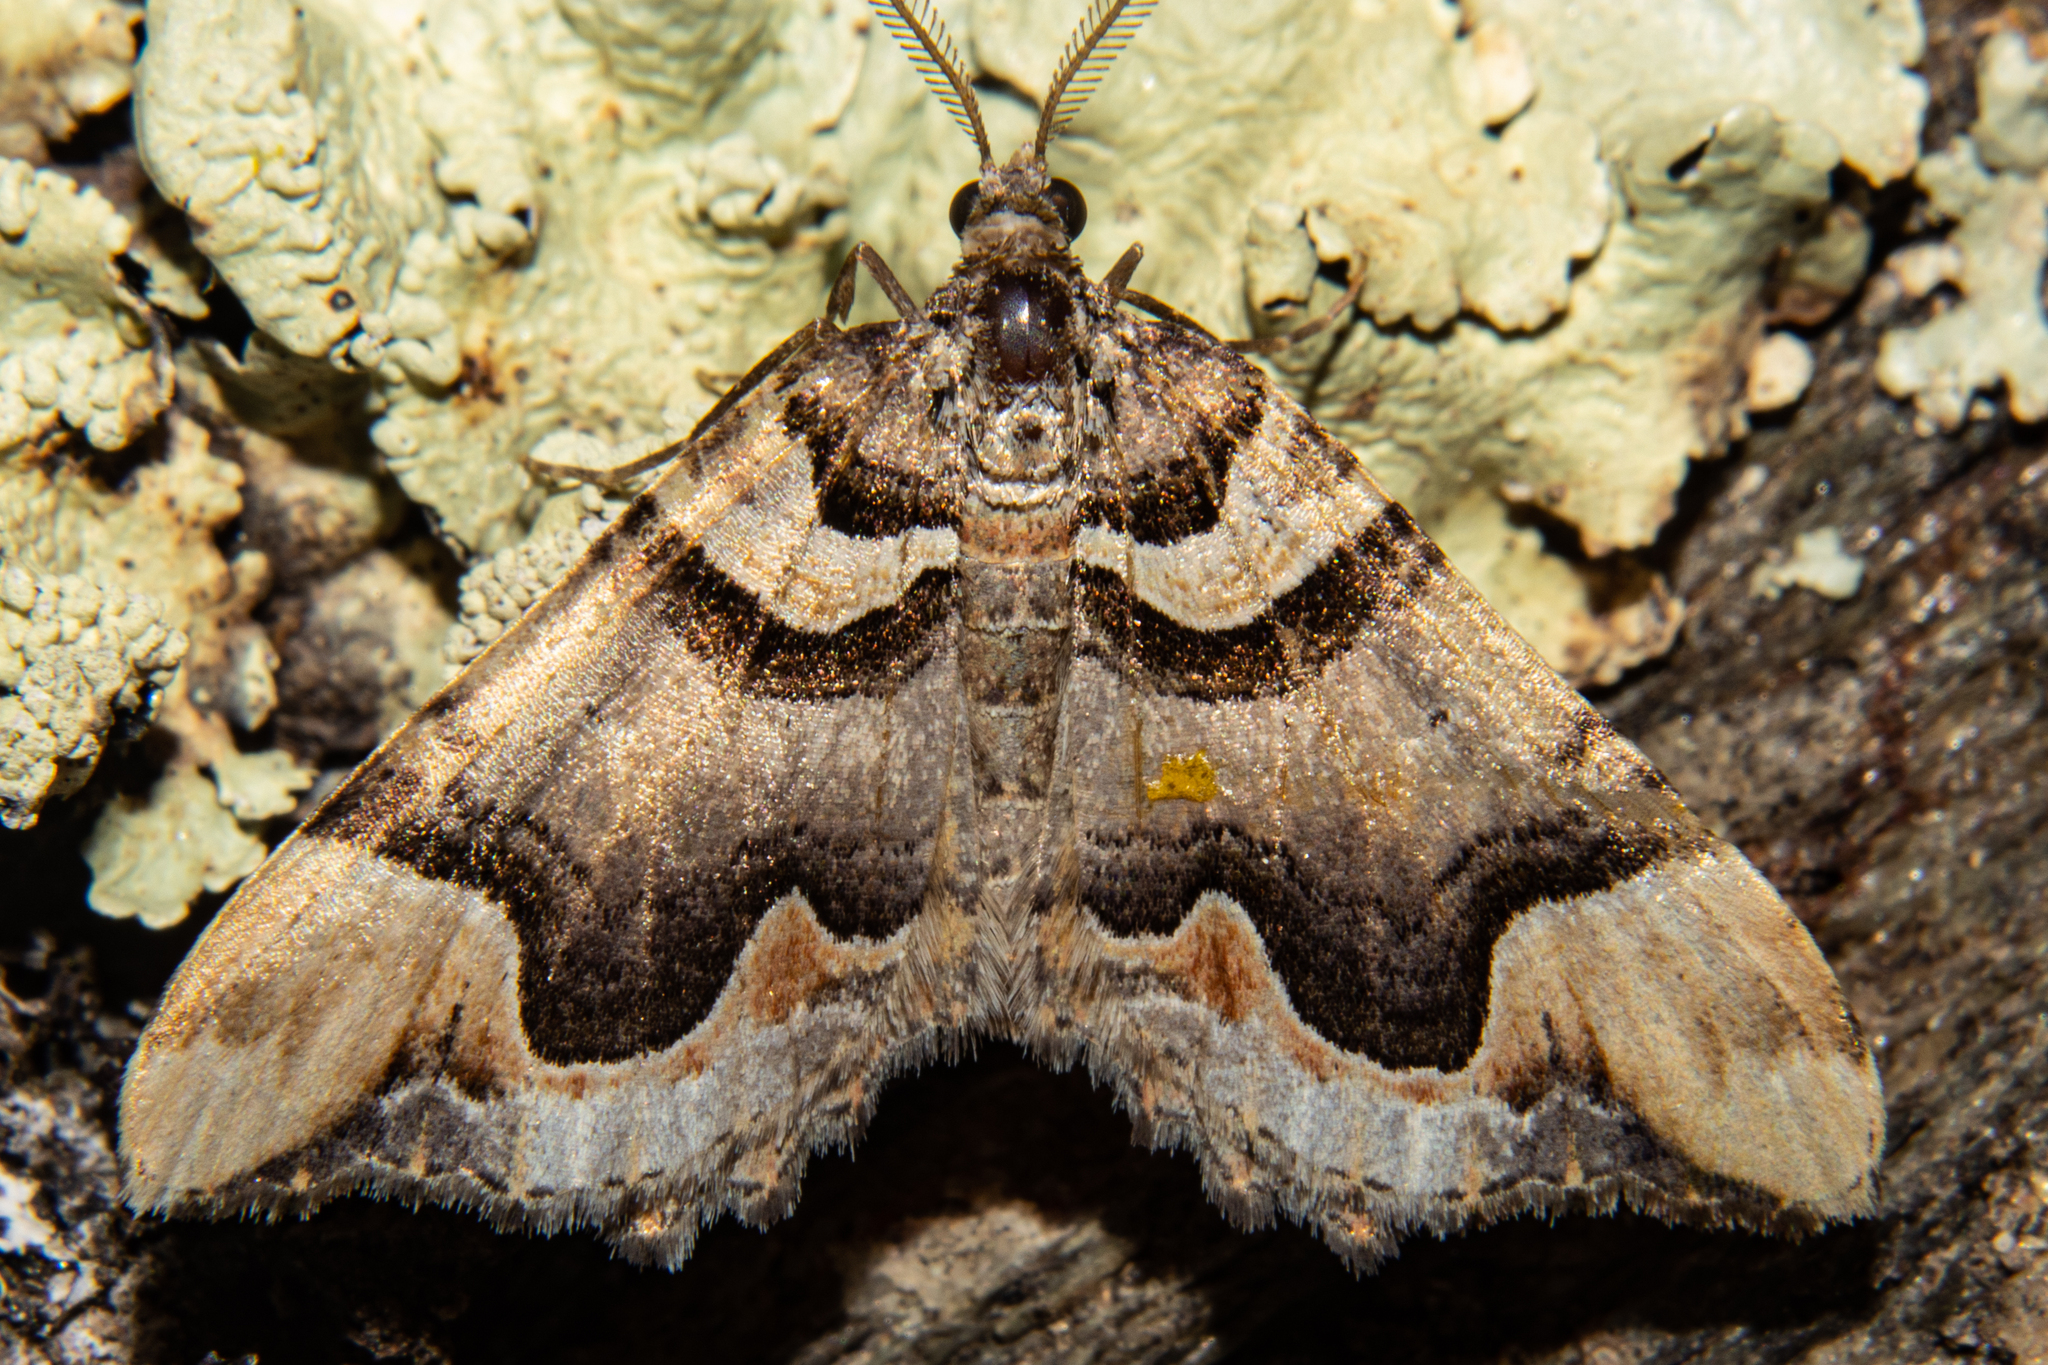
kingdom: Animalia
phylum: Arthropoda
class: Insecta
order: Lepidoptera
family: Geometridae
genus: Asaphodes
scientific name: Asaphodes chlamydota
